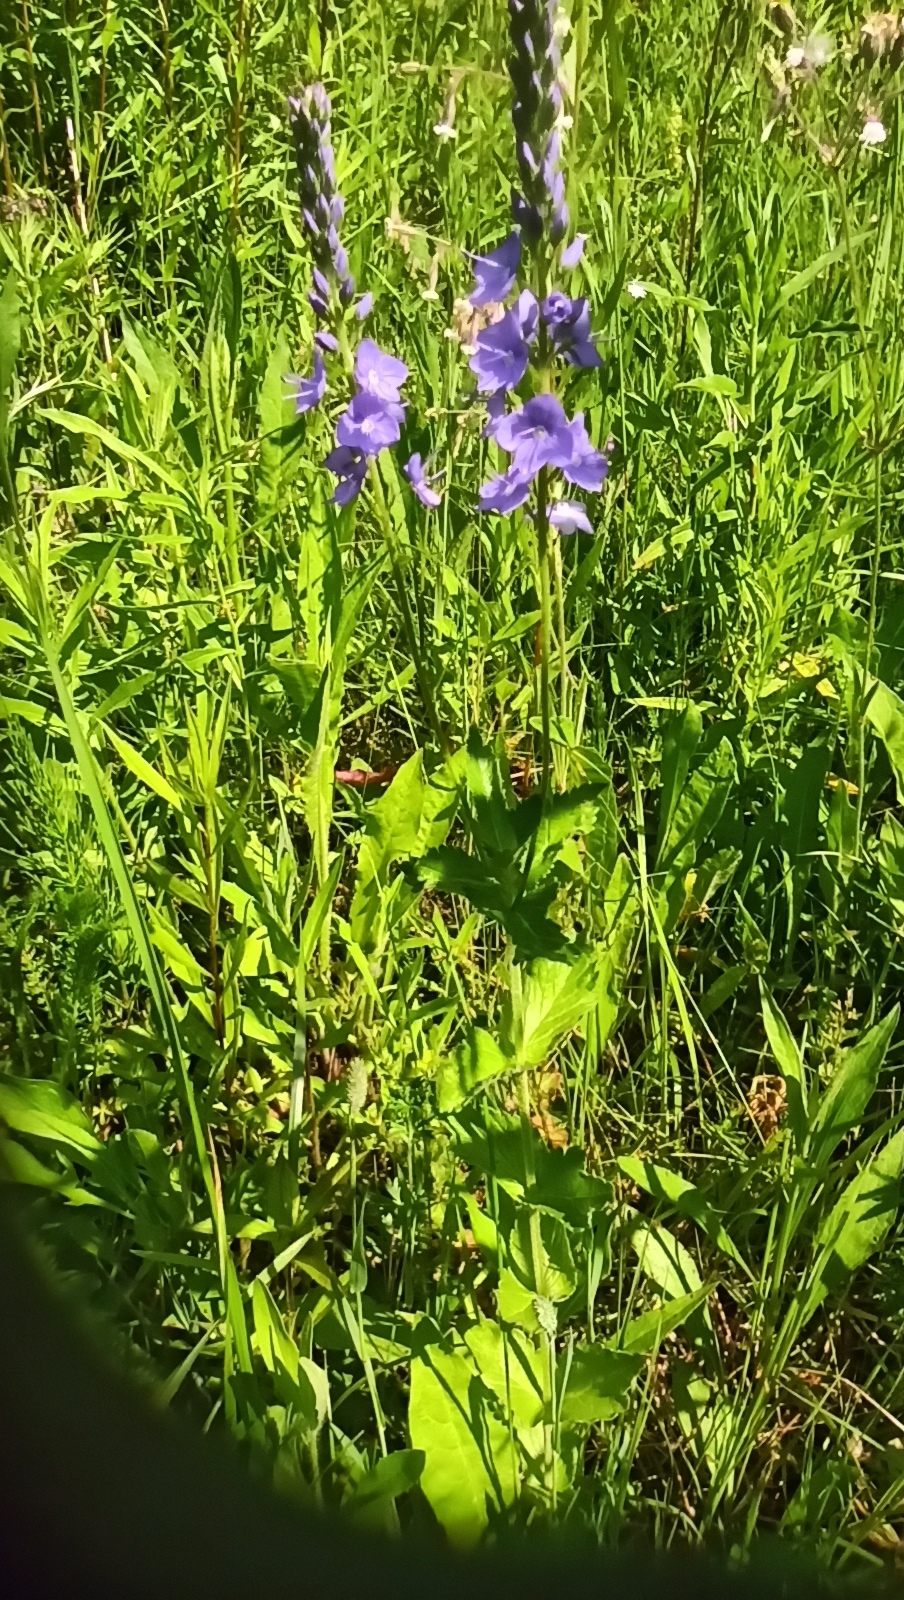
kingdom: Plantae
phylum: Tracheophyta
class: Magnoliopsida
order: Lamiales
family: Plantaginaceae
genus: Veronica
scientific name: Veronica teucrium
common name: Large speedwell
